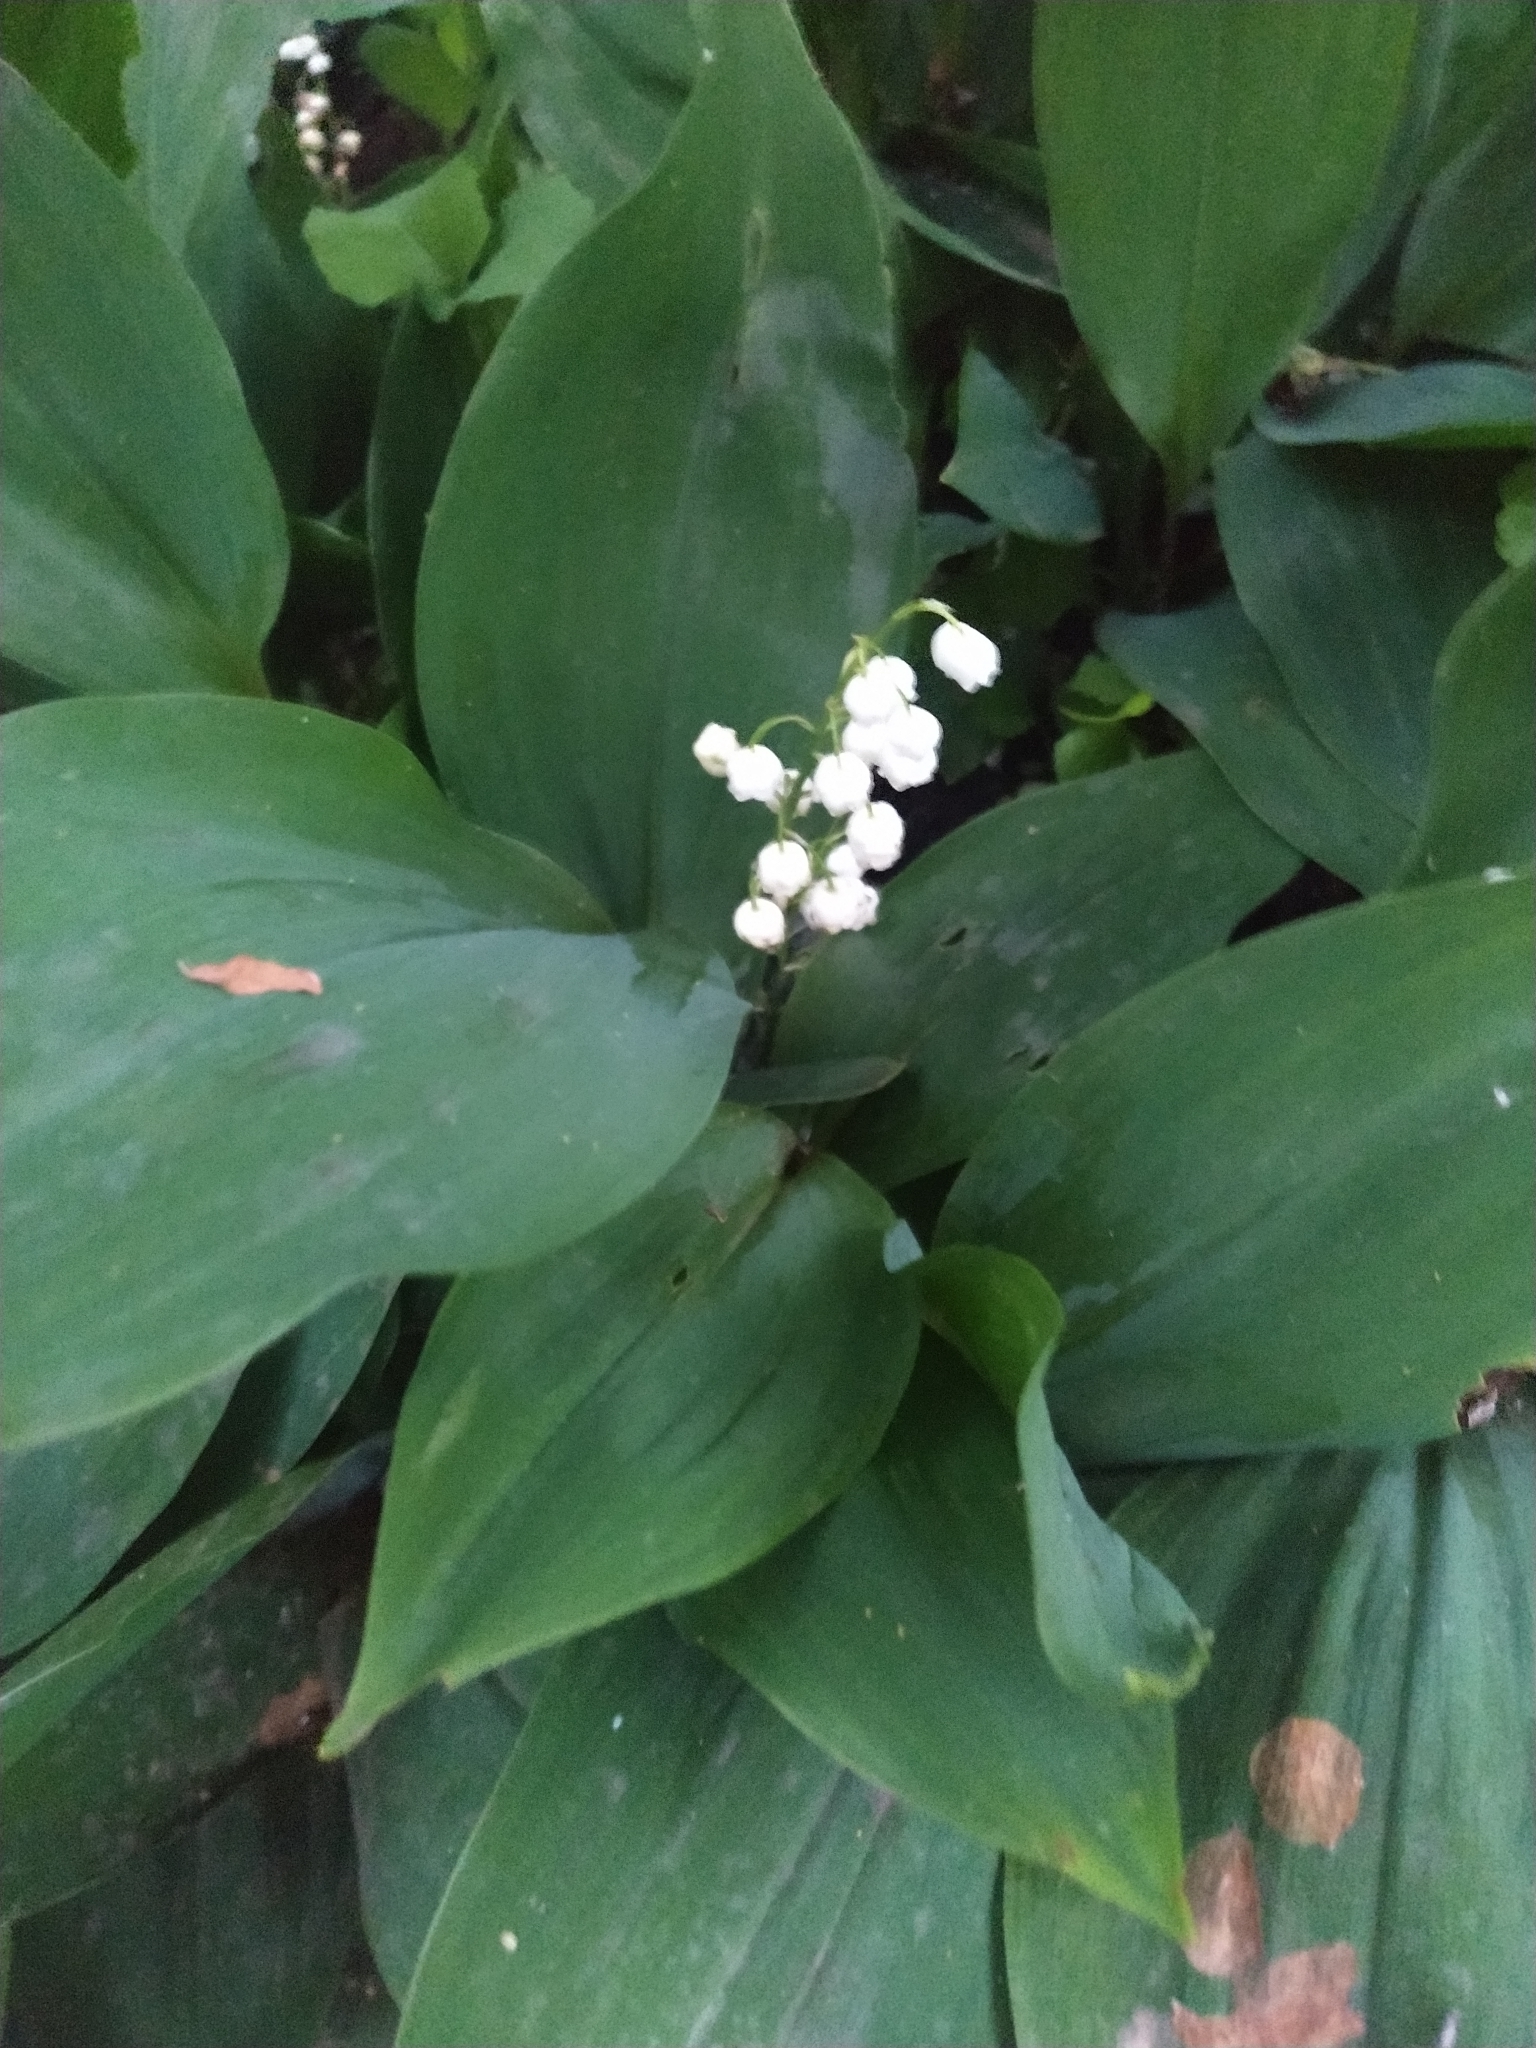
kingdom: Plantae
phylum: Tracheophyta
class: Liliopsida
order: Asparagales
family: Asparagaceae
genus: Convallaria
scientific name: Convallaria majalis
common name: Lily-of-the-valley
